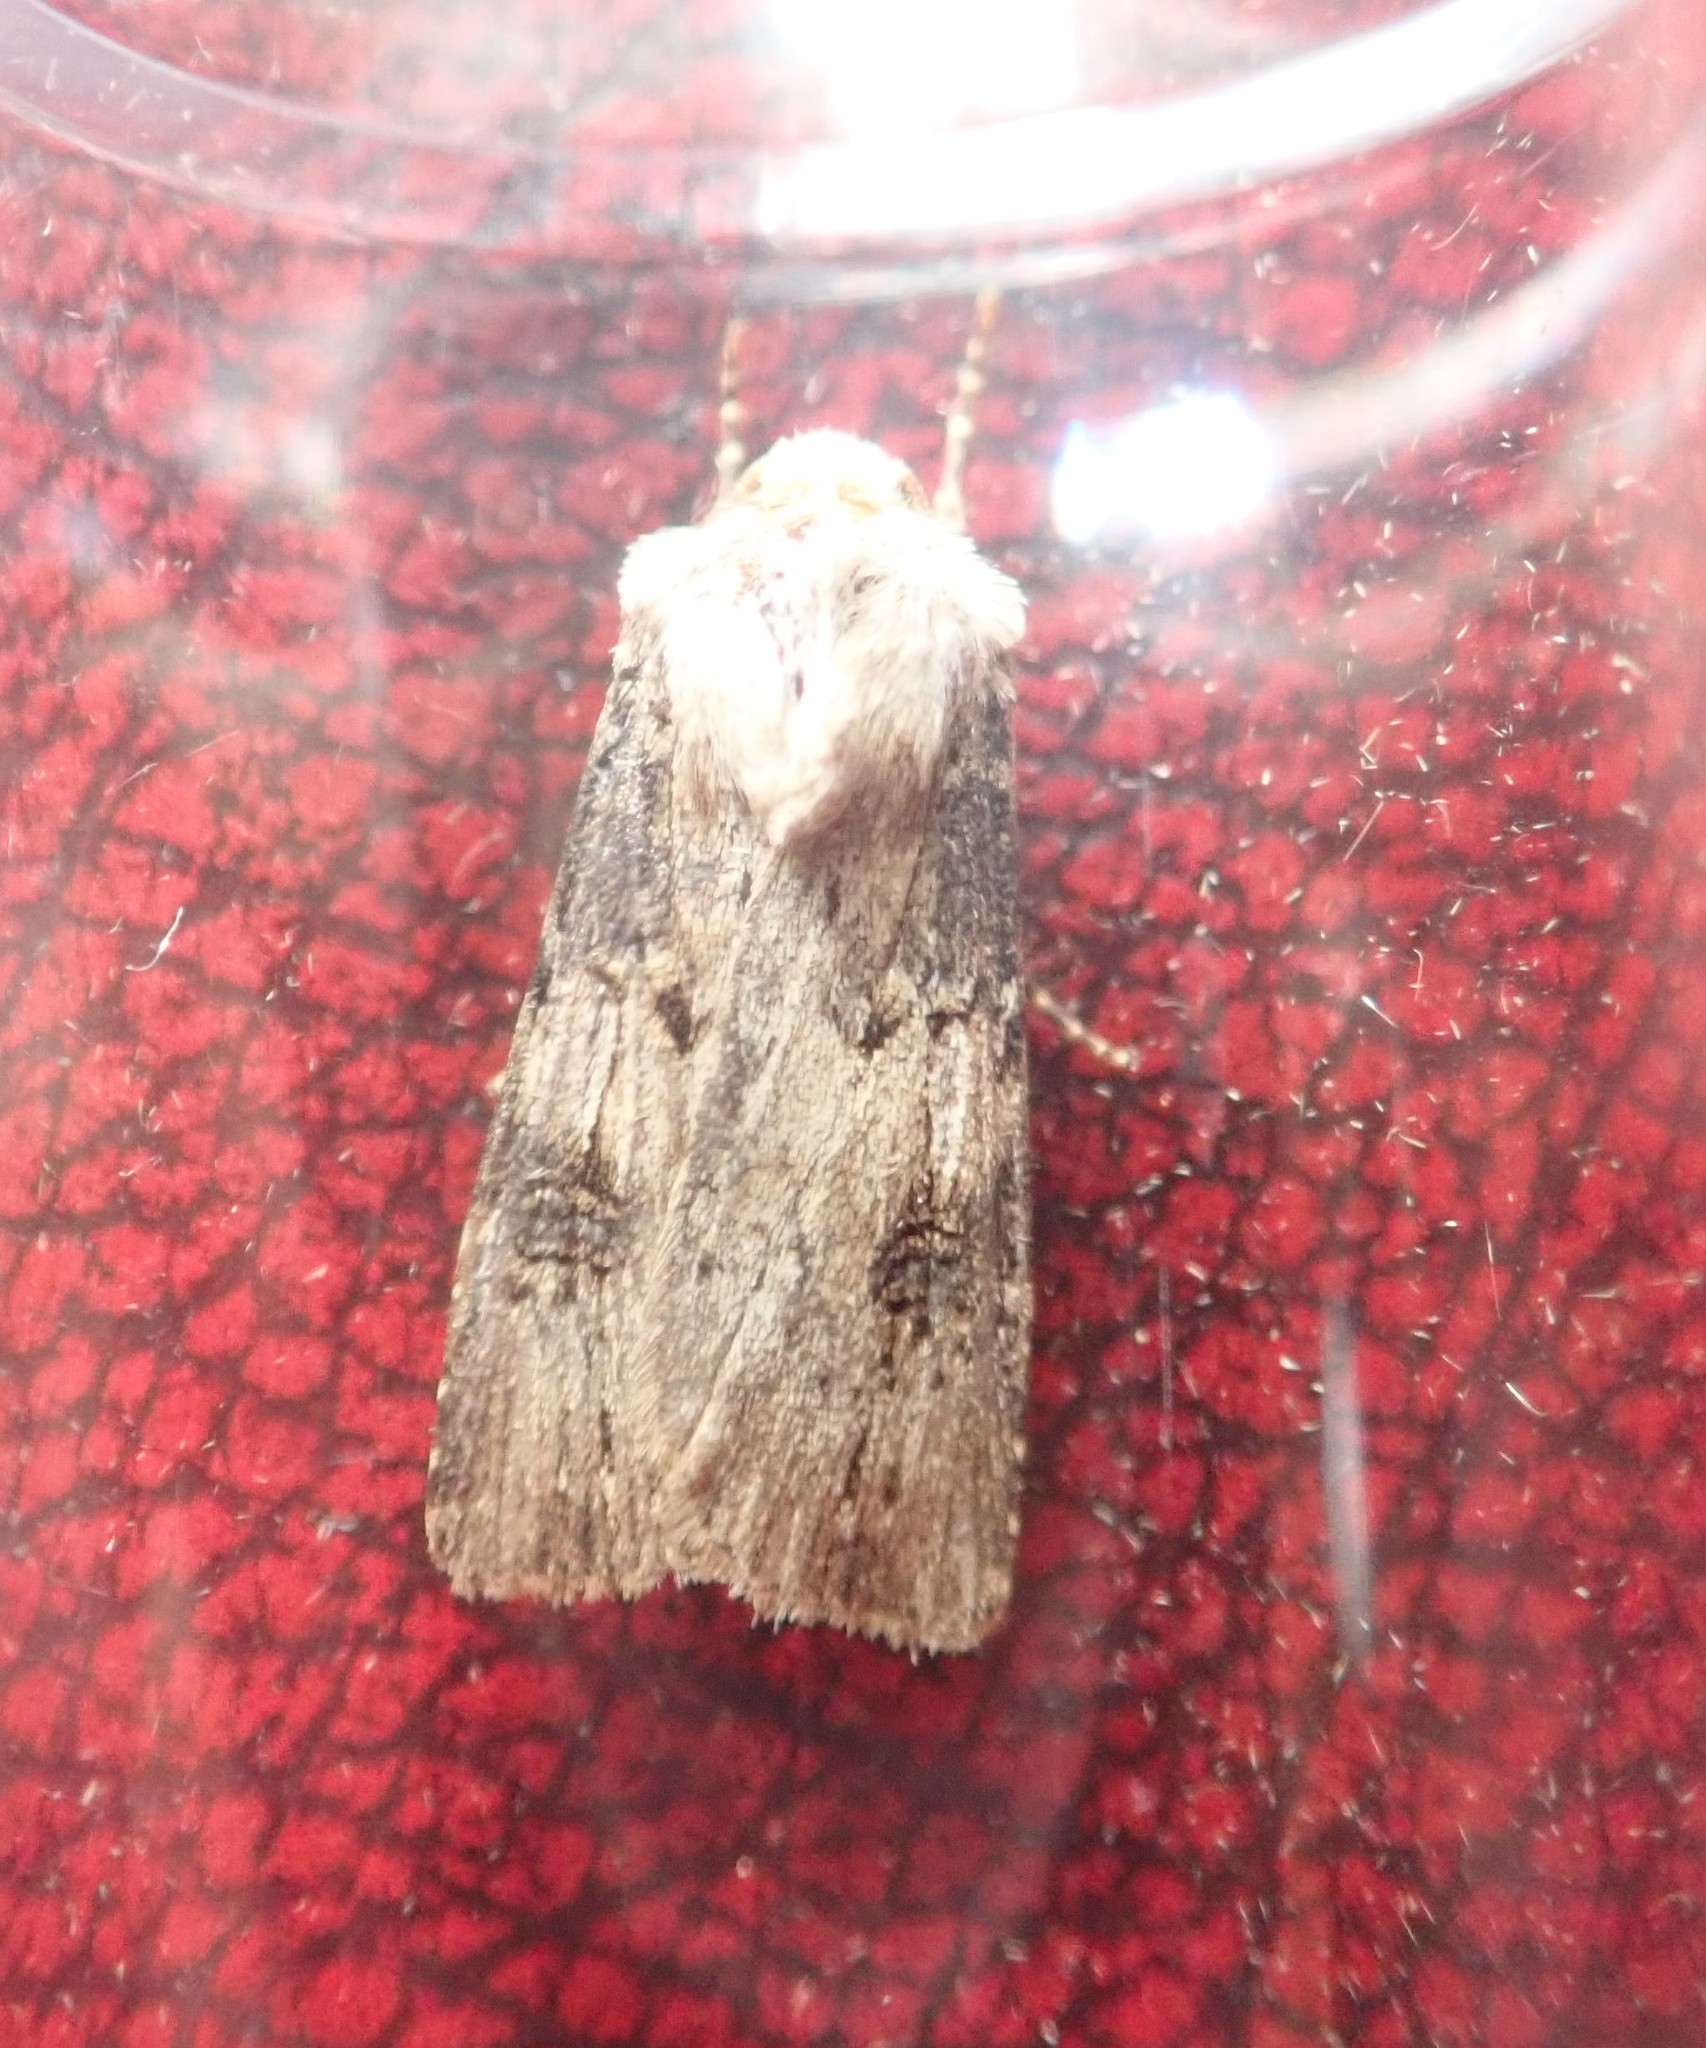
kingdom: Animalia
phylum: Arthropoda
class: Insecta
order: Lepidoptera
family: Noctuidae
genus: Agrotis
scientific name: Agrotis puta
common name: Shuttle-shaped dart
